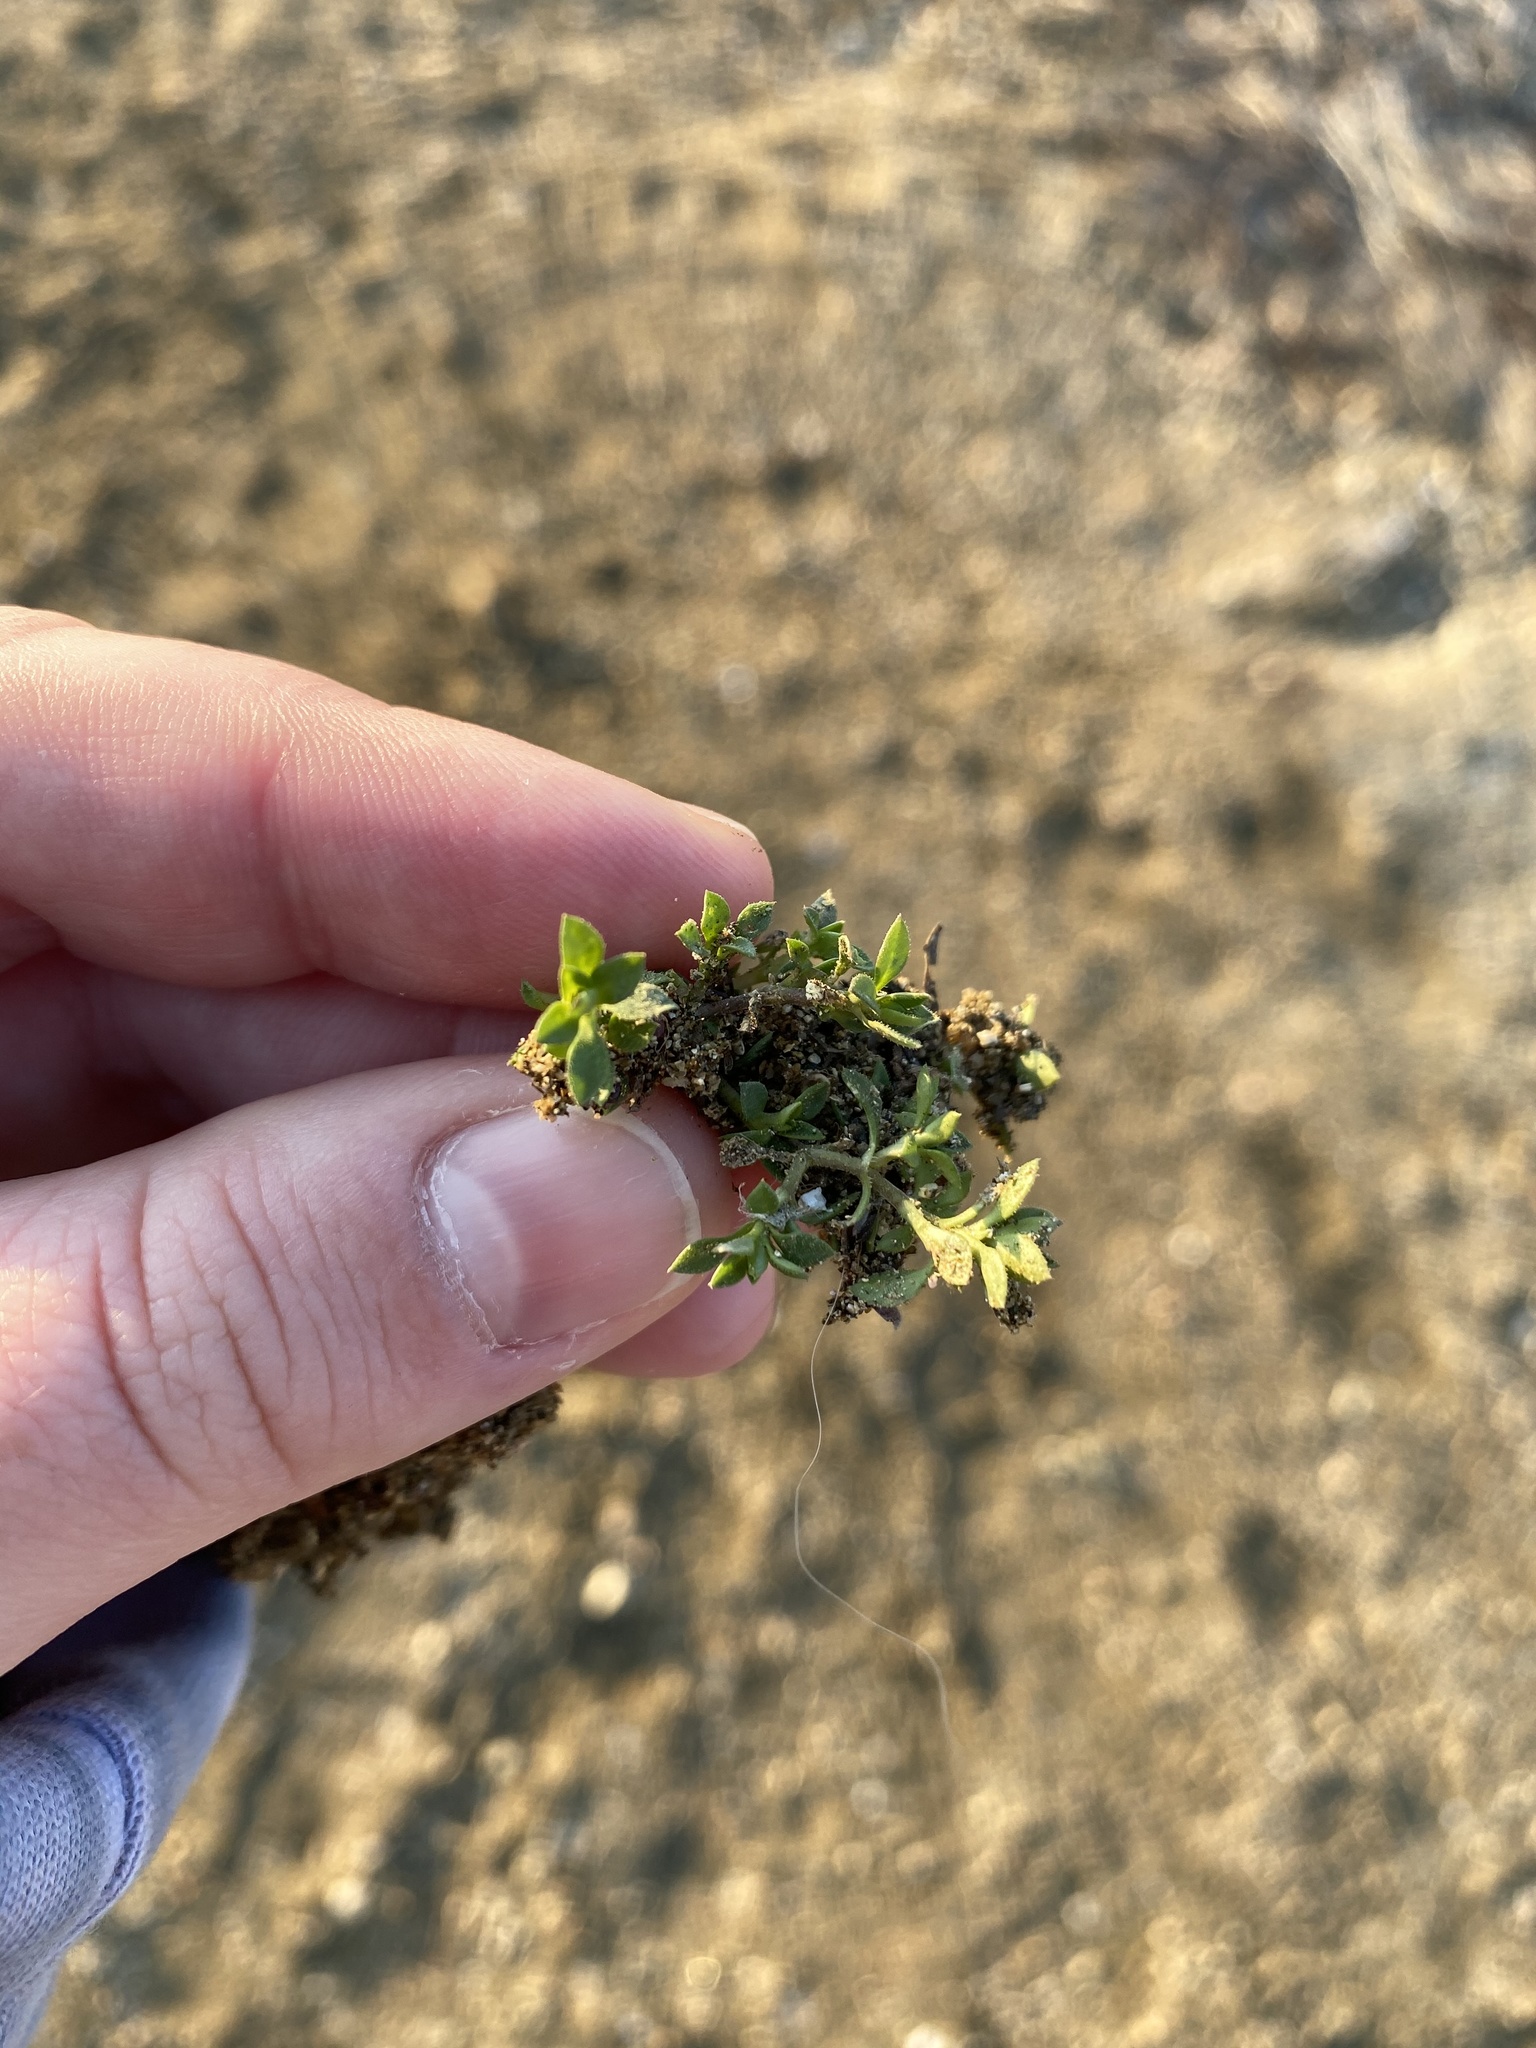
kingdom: Plantae
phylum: Tracheophyta
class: Magnoliopsida
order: Caryophyllales
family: Caryophyllaceae
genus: Arenaria
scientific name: Arenaria serpyllifolia
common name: Thyme-leaved sandwort
